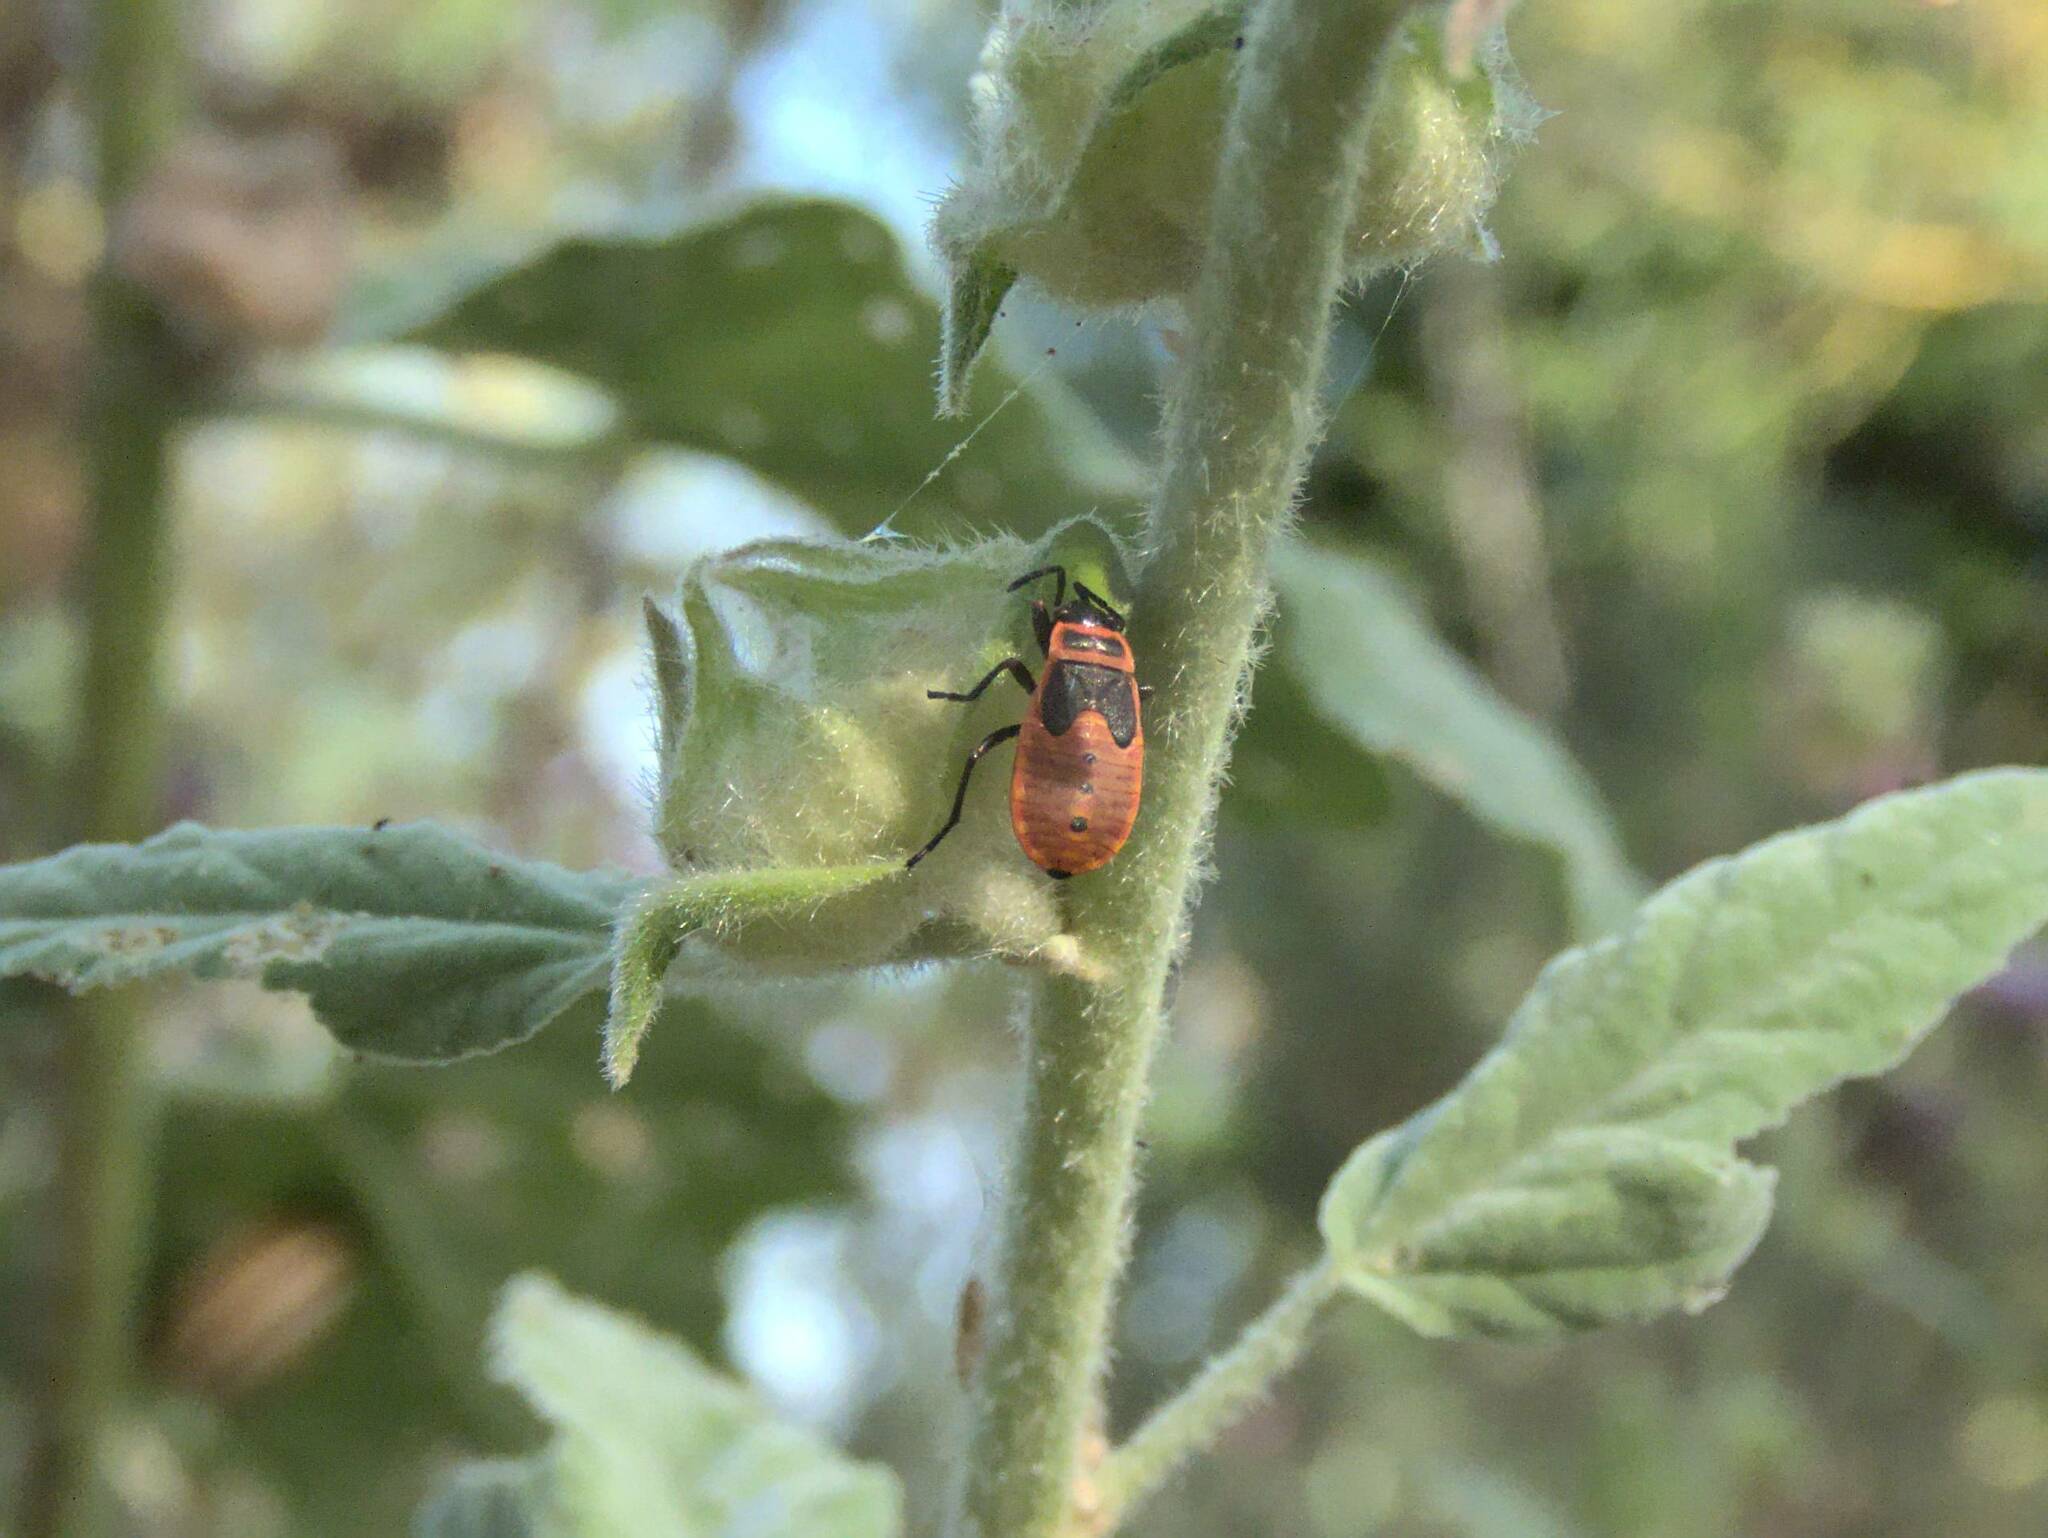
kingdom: Animalia
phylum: Arthropoda
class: Insecta
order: Hemiptera
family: Pyrrhocoridae
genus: Pyrrhocoris
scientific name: Pyrrhocoris apterus
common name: Firebug
